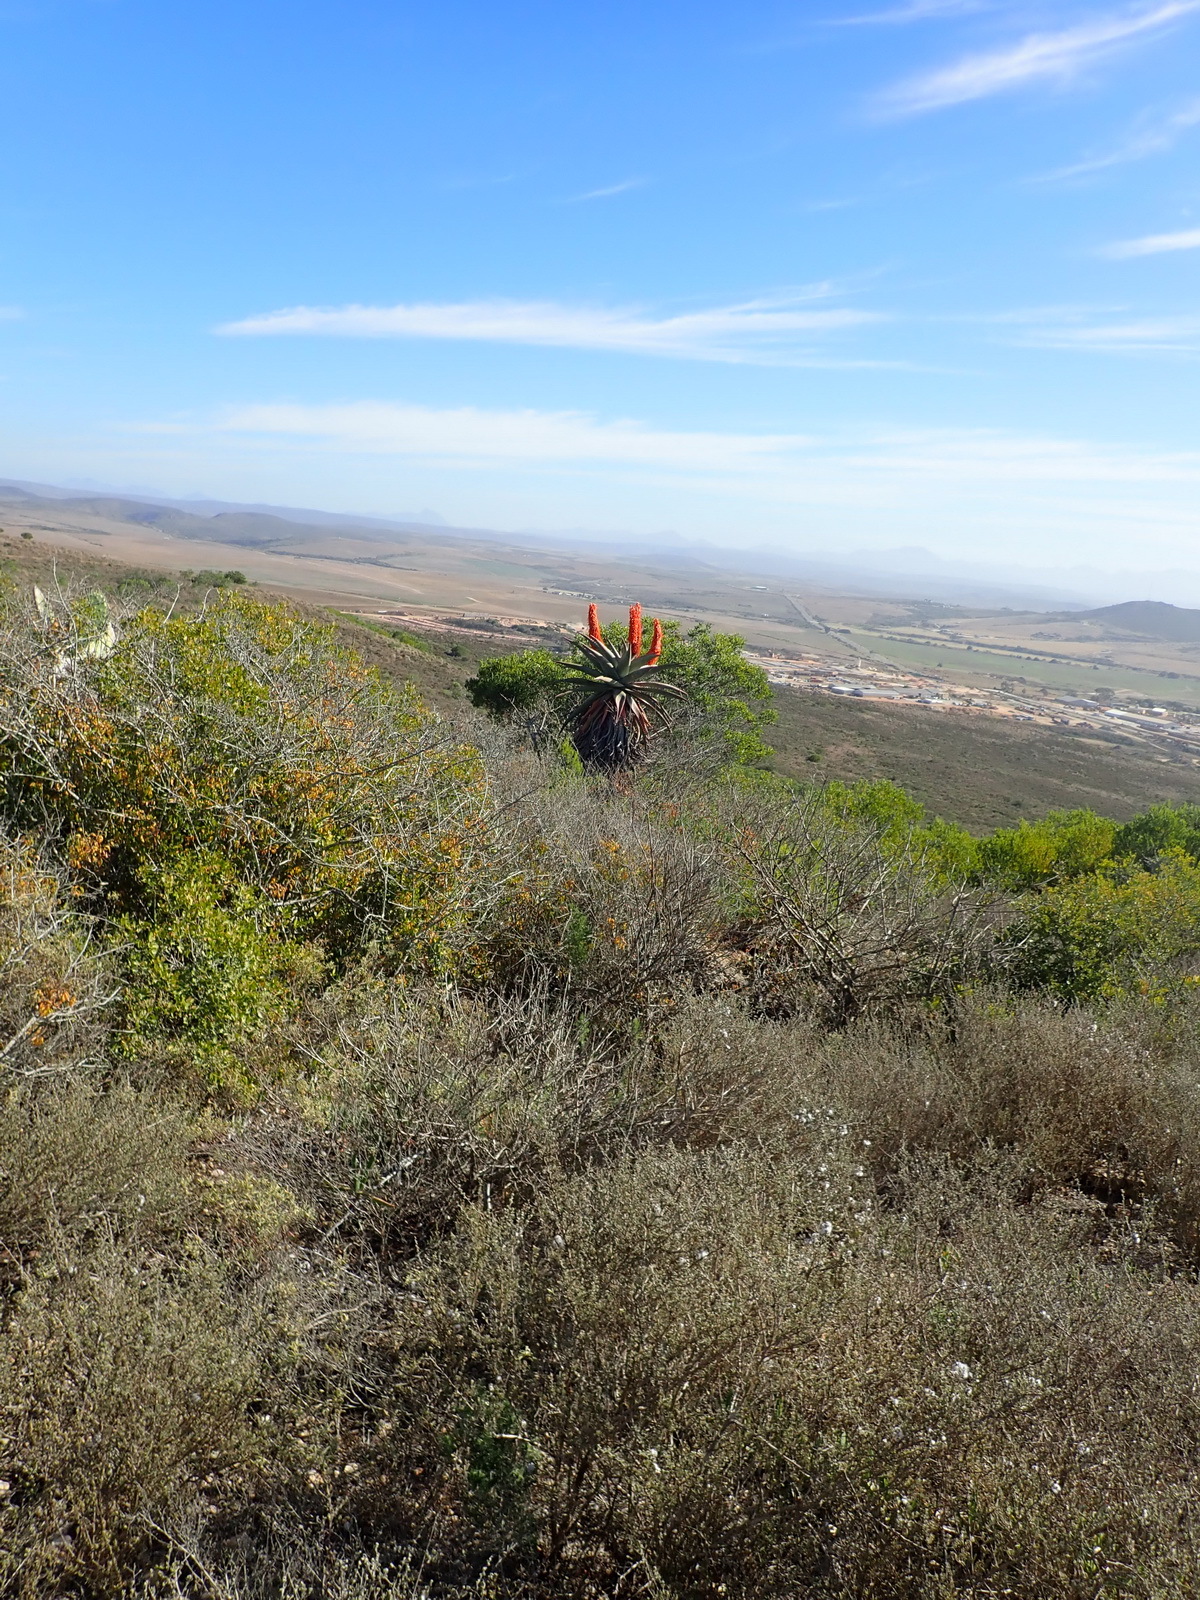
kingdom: Plantae
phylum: Tracheophyta
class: Liliopsida
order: Asparagales
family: Asphodelaceae
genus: Aloe
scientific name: Aloe ferox
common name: Bitter aloe
